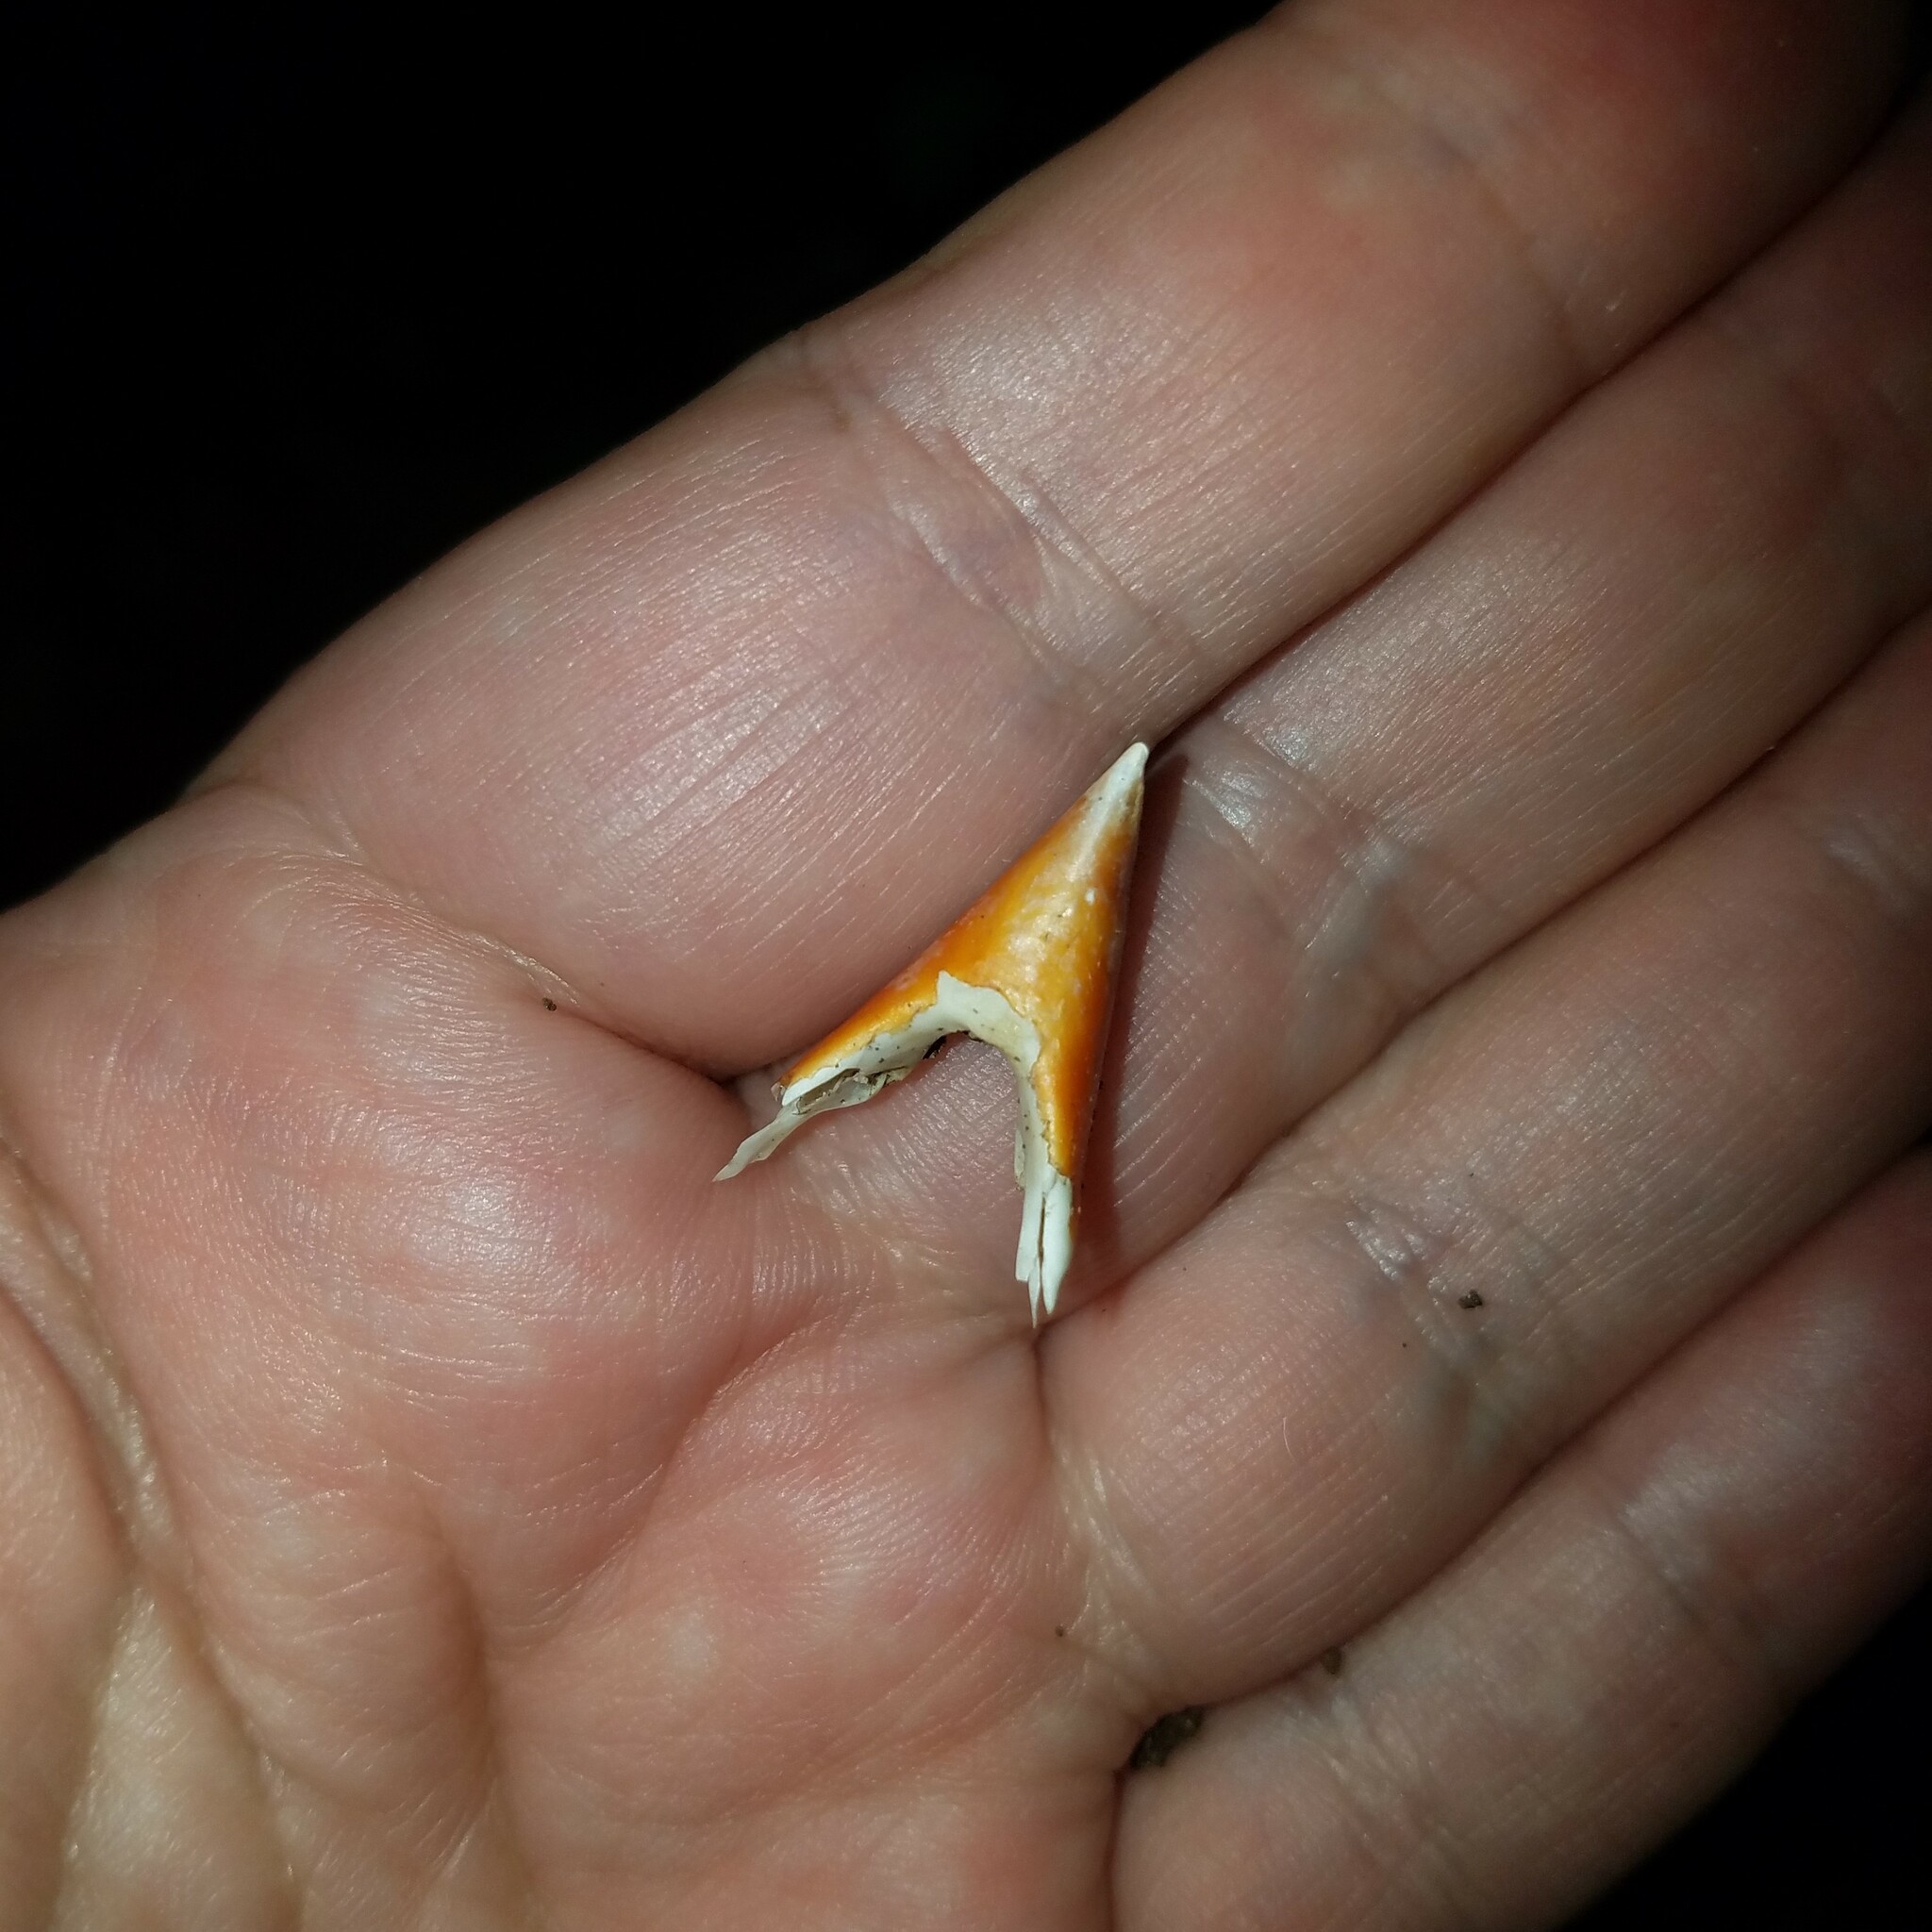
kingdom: Animalia
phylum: Chordata
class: Aves
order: Passeriformes
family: Cardinalidae
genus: Cardinalis
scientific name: Cardinalis cardinalis
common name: Northern cardinal
